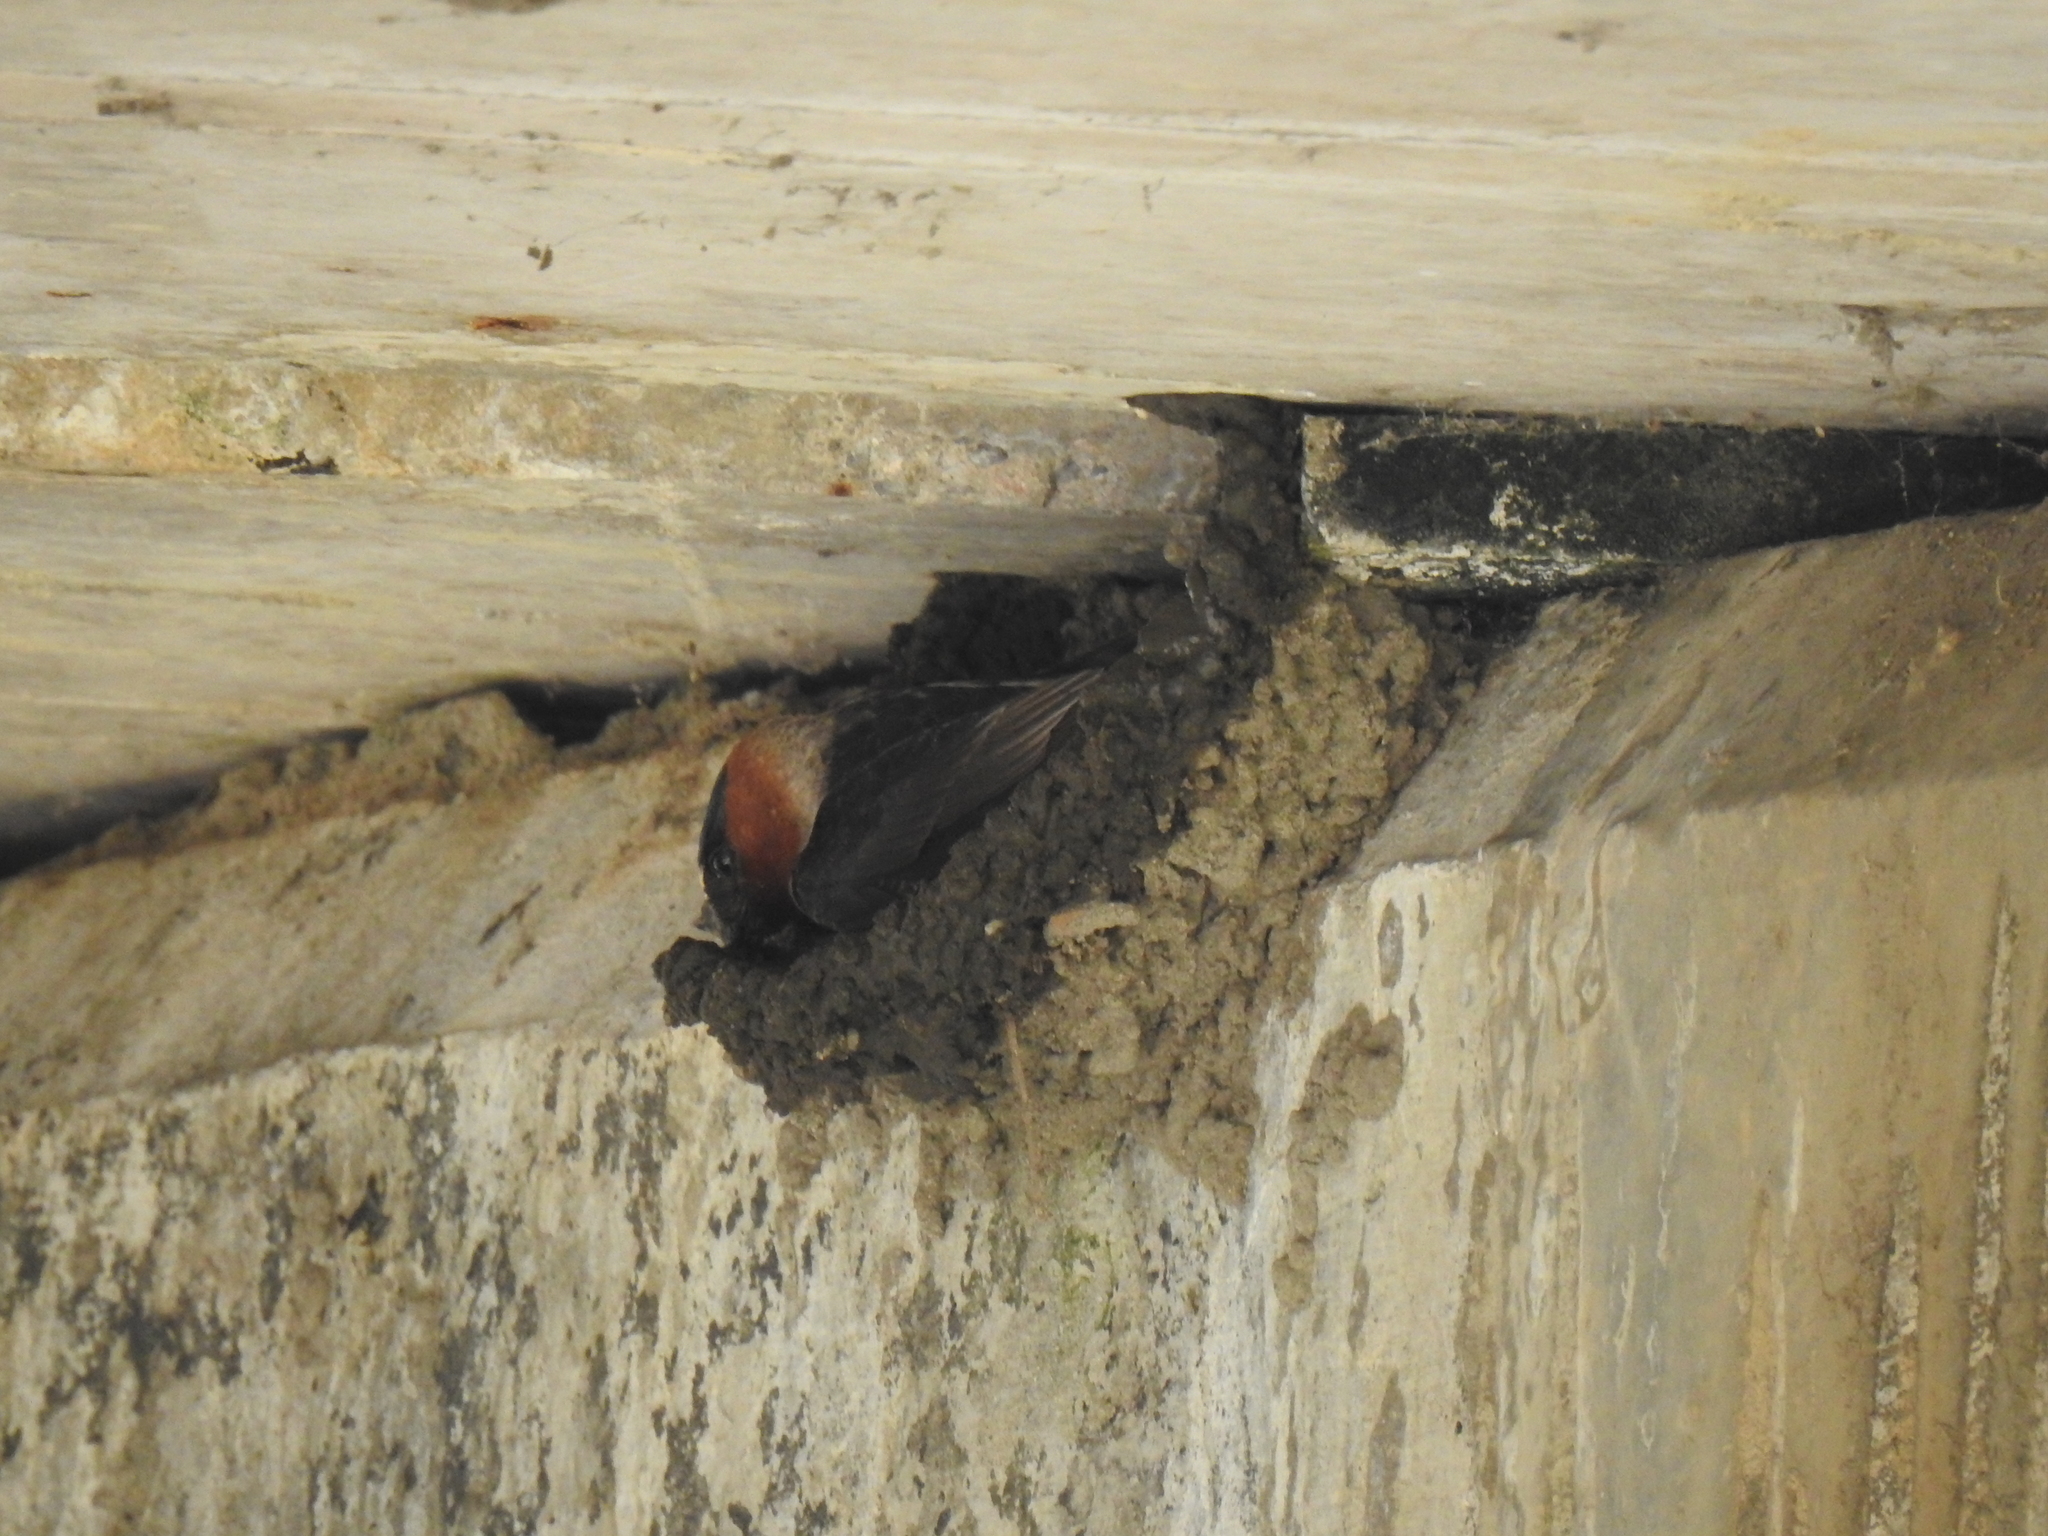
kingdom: Animalia
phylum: Chordata
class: Aves
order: Passeriformes
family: Hirundinidae
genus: Petrochelidon
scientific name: Petrochelidon pyrrhonota
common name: American cliff swallow
